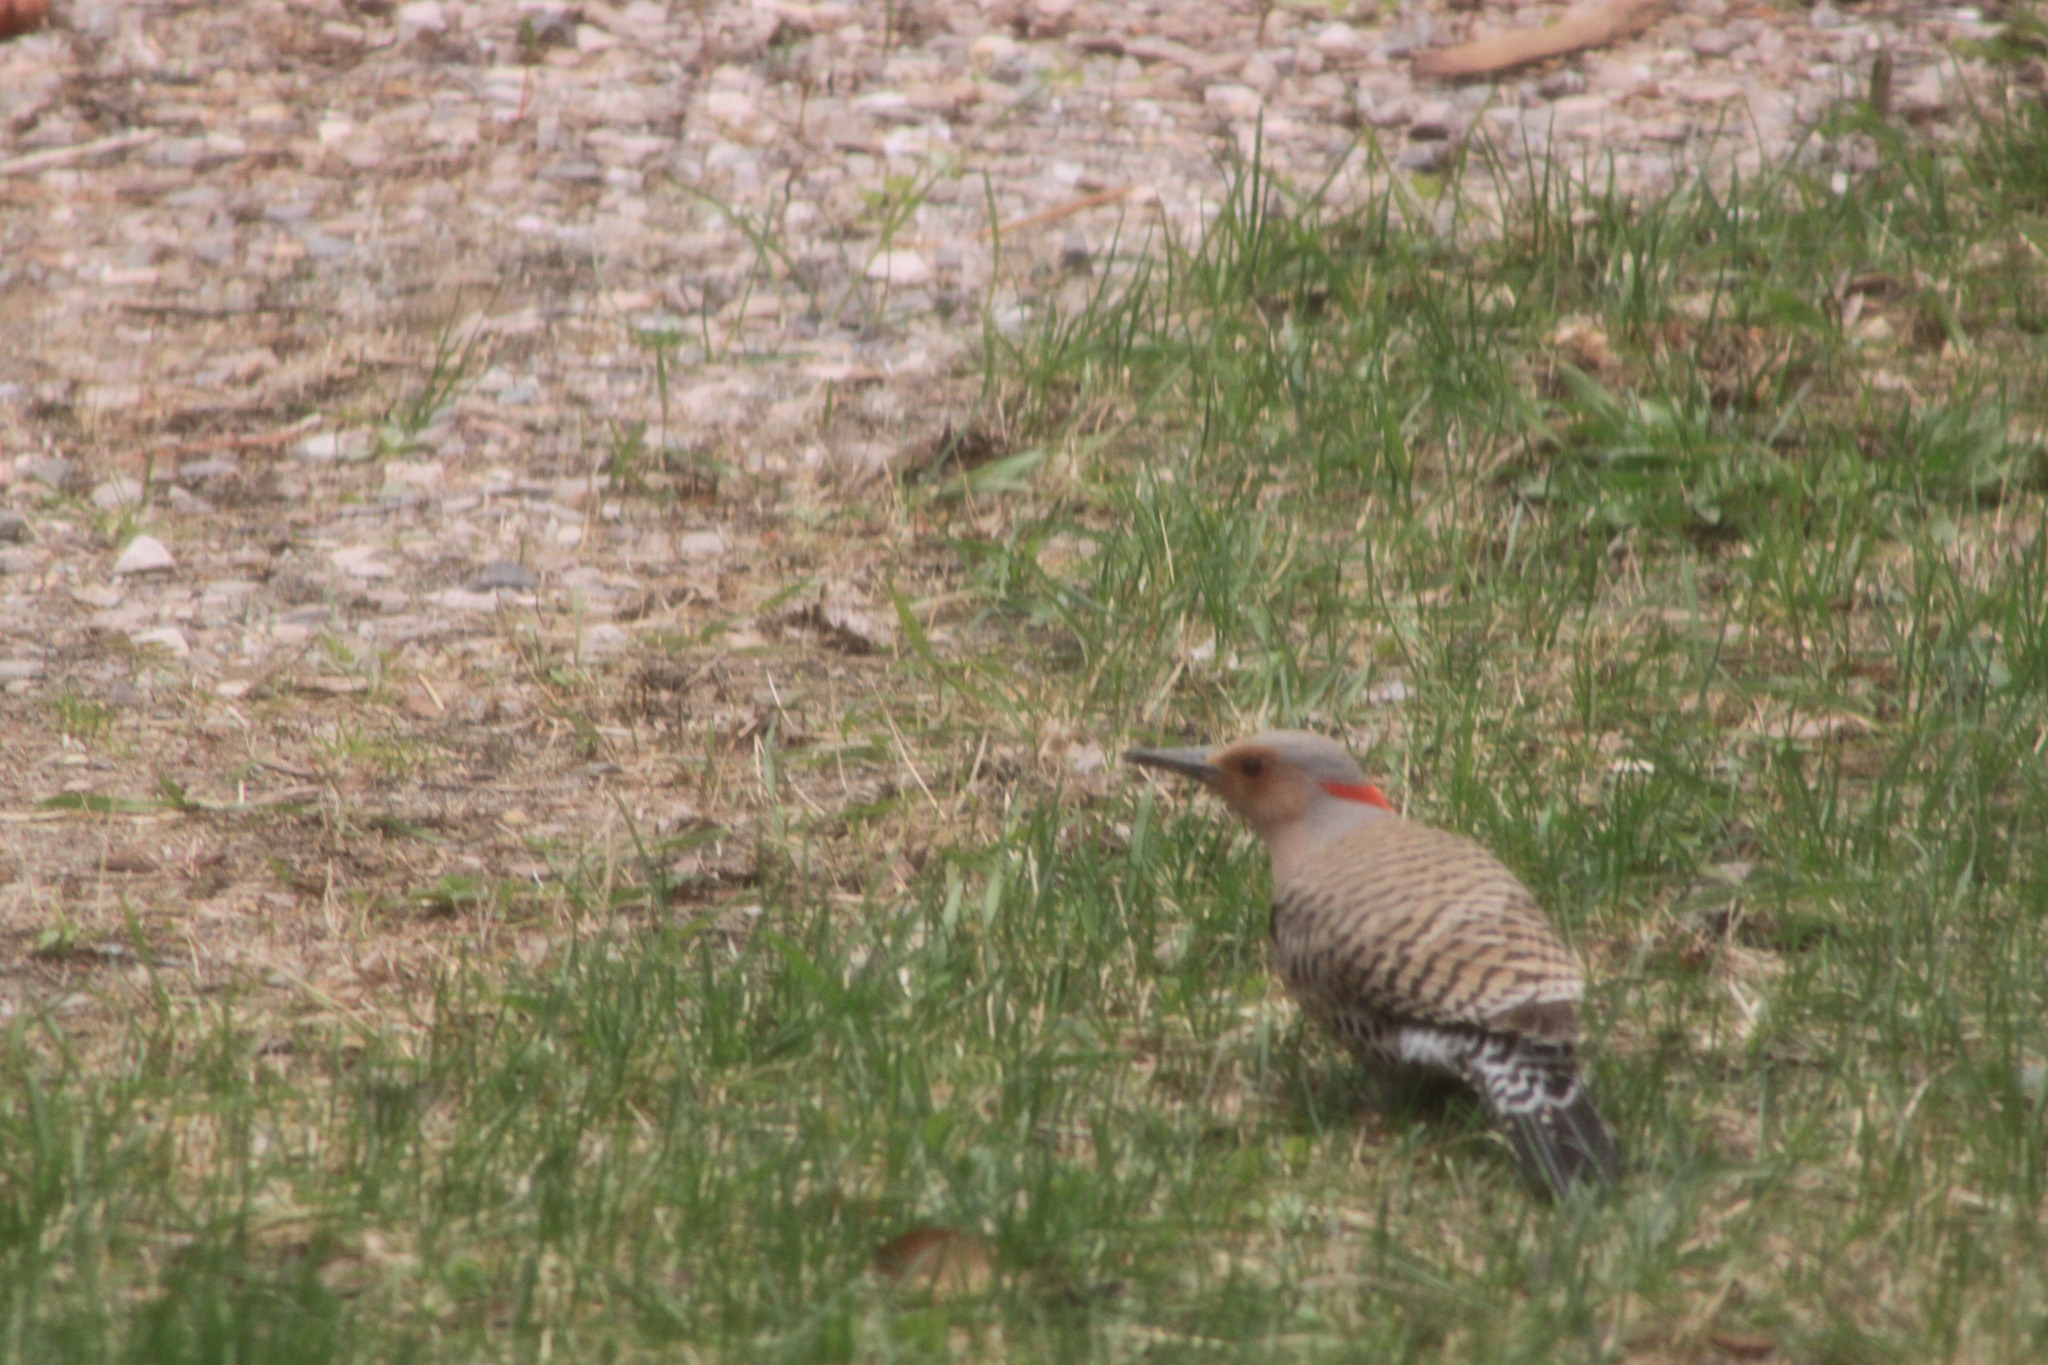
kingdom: Animalia
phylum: Chordata
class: Aves
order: Piciformes
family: Picidae
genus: Colaptes
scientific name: Colaptes auratus
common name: Northern flicker
